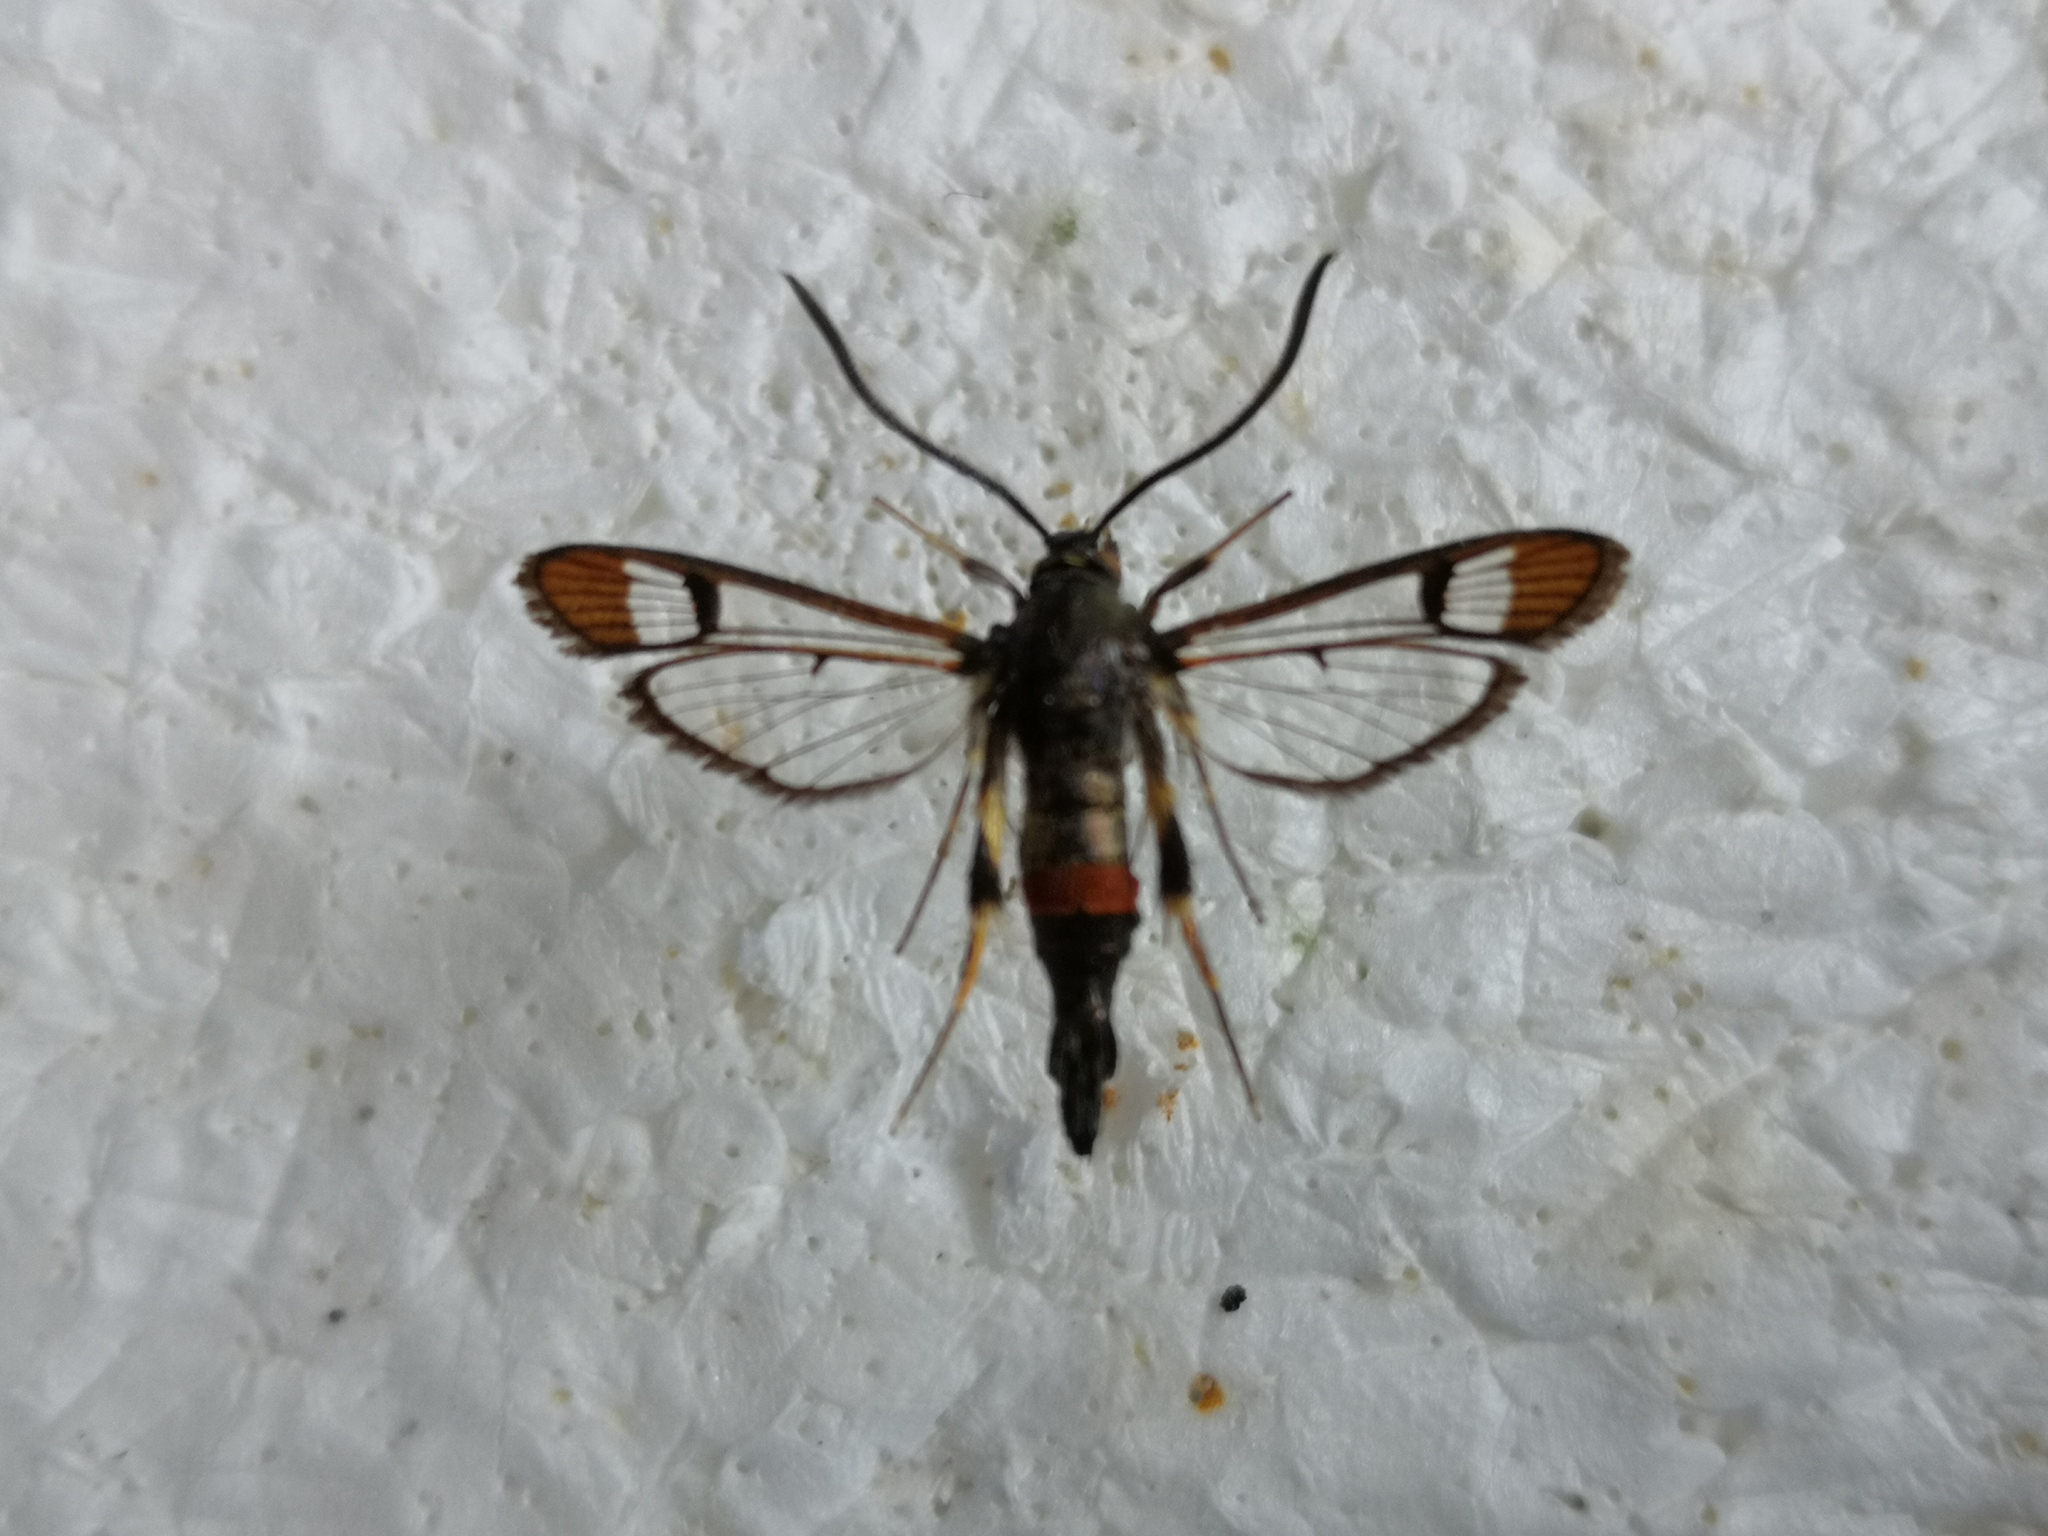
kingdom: Animalia
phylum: Arthropoda
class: Insecta
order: Lepidoptera
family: Sesiidae
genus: Synanthedon
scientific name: Synanthedon formicaeformis
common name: Red-tipped clearwing
